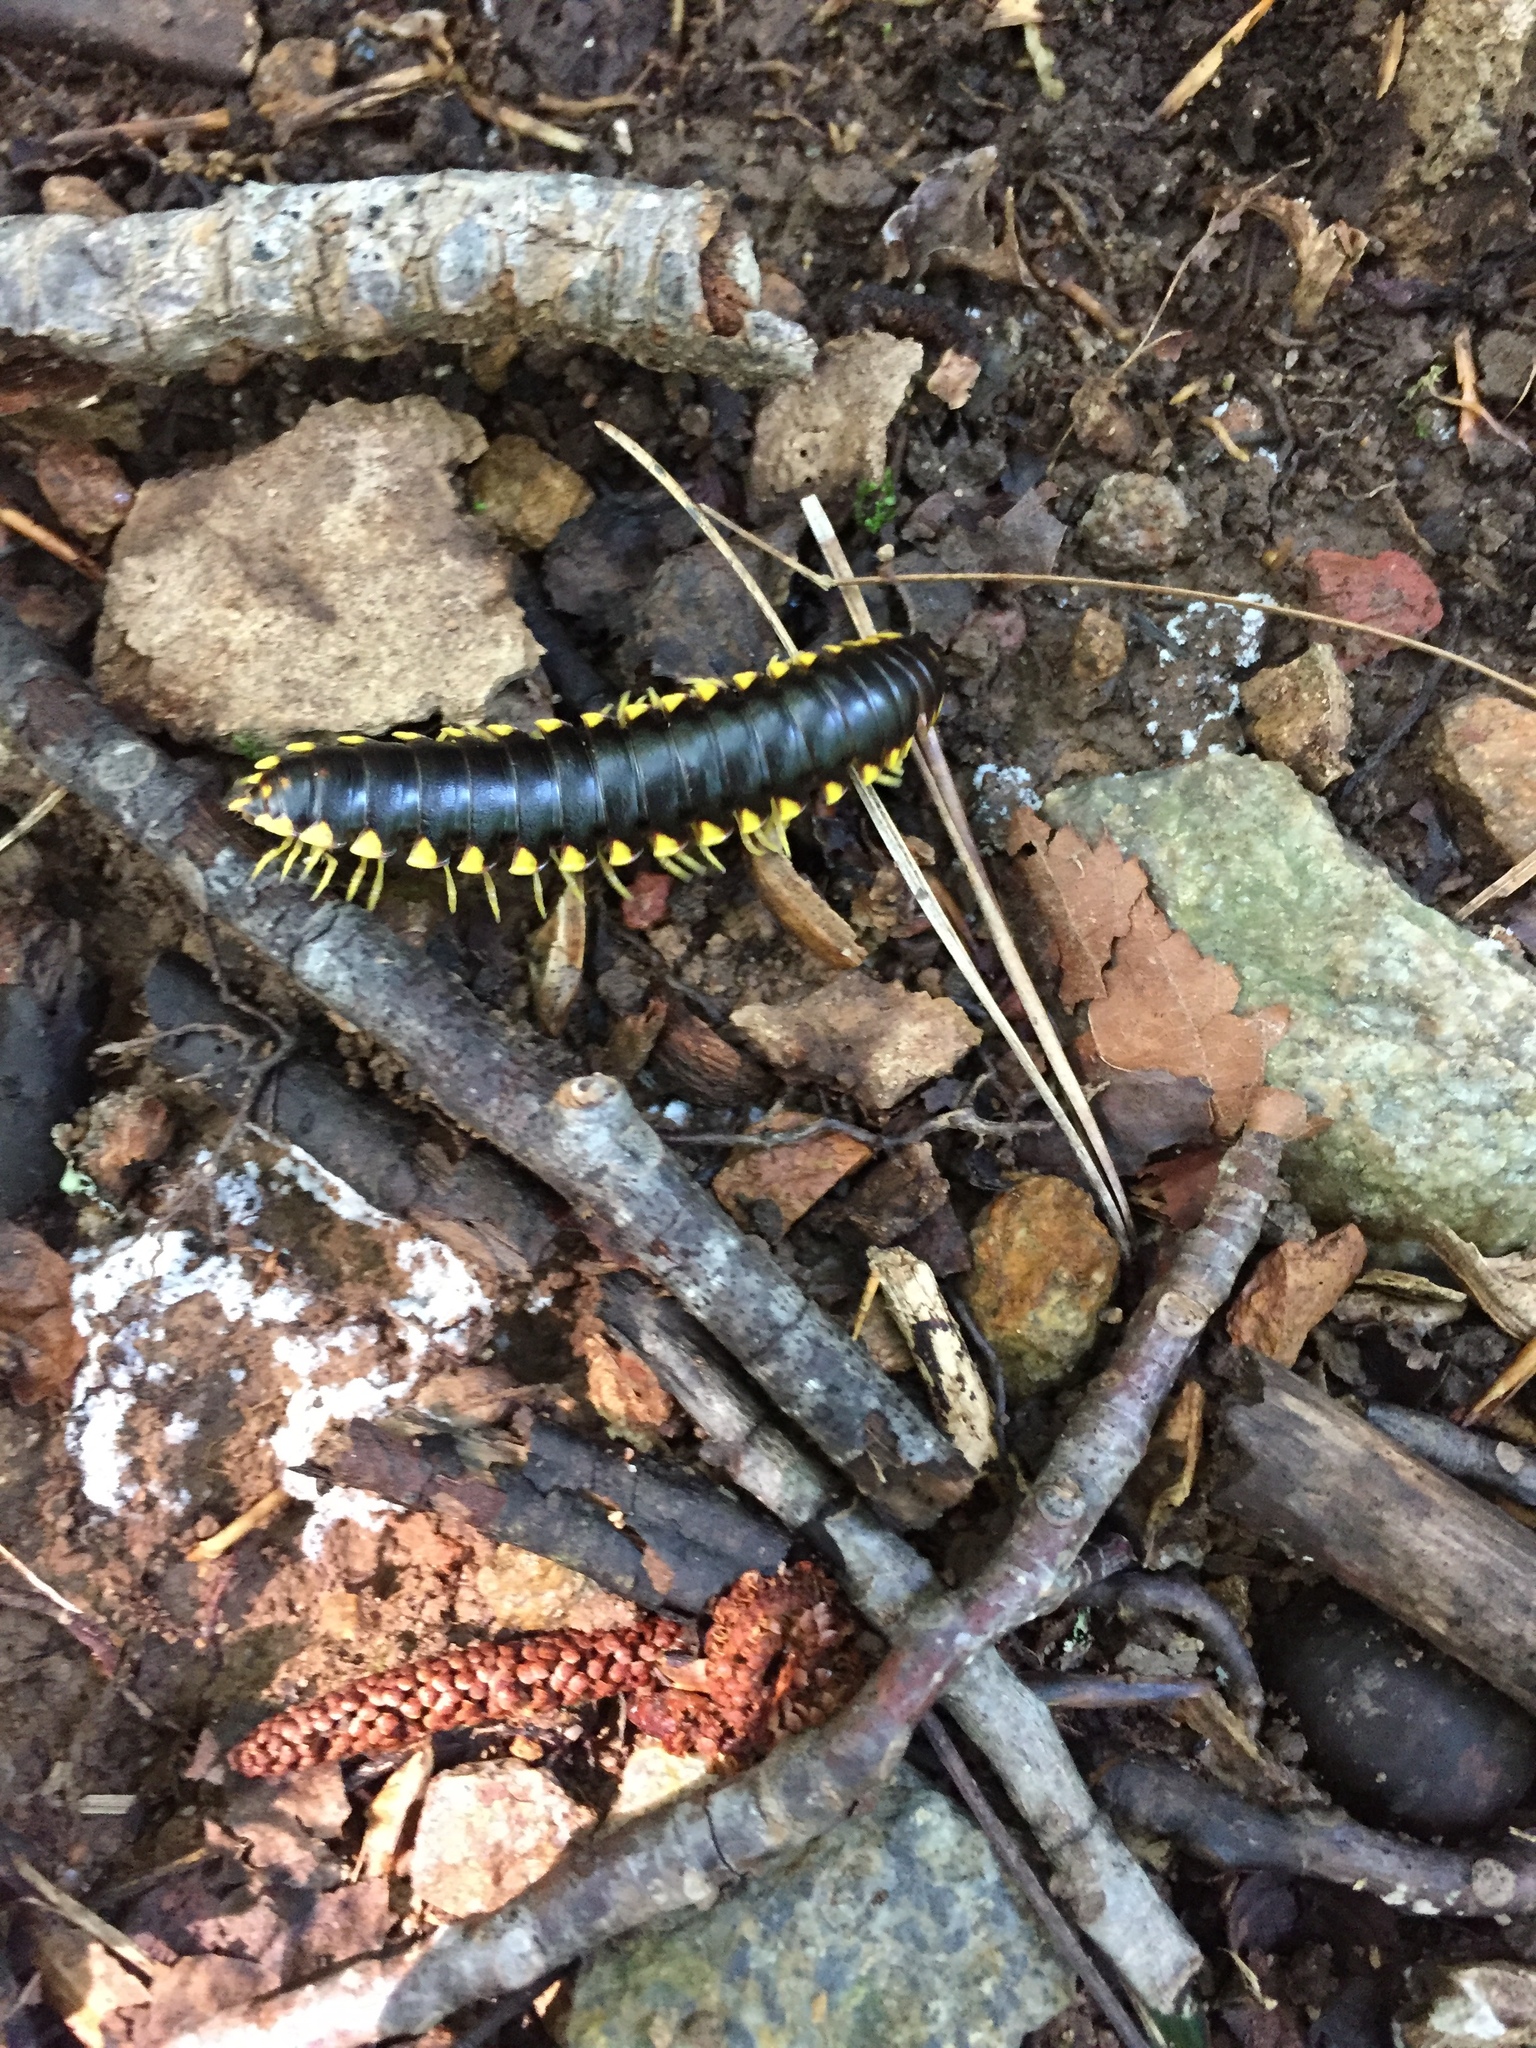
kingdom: Animalia
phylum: Arthropoda
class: Diplopoda
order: Polydesmida
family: Xystodesmidae
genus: Apheloria
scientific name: Apheloria tigana
